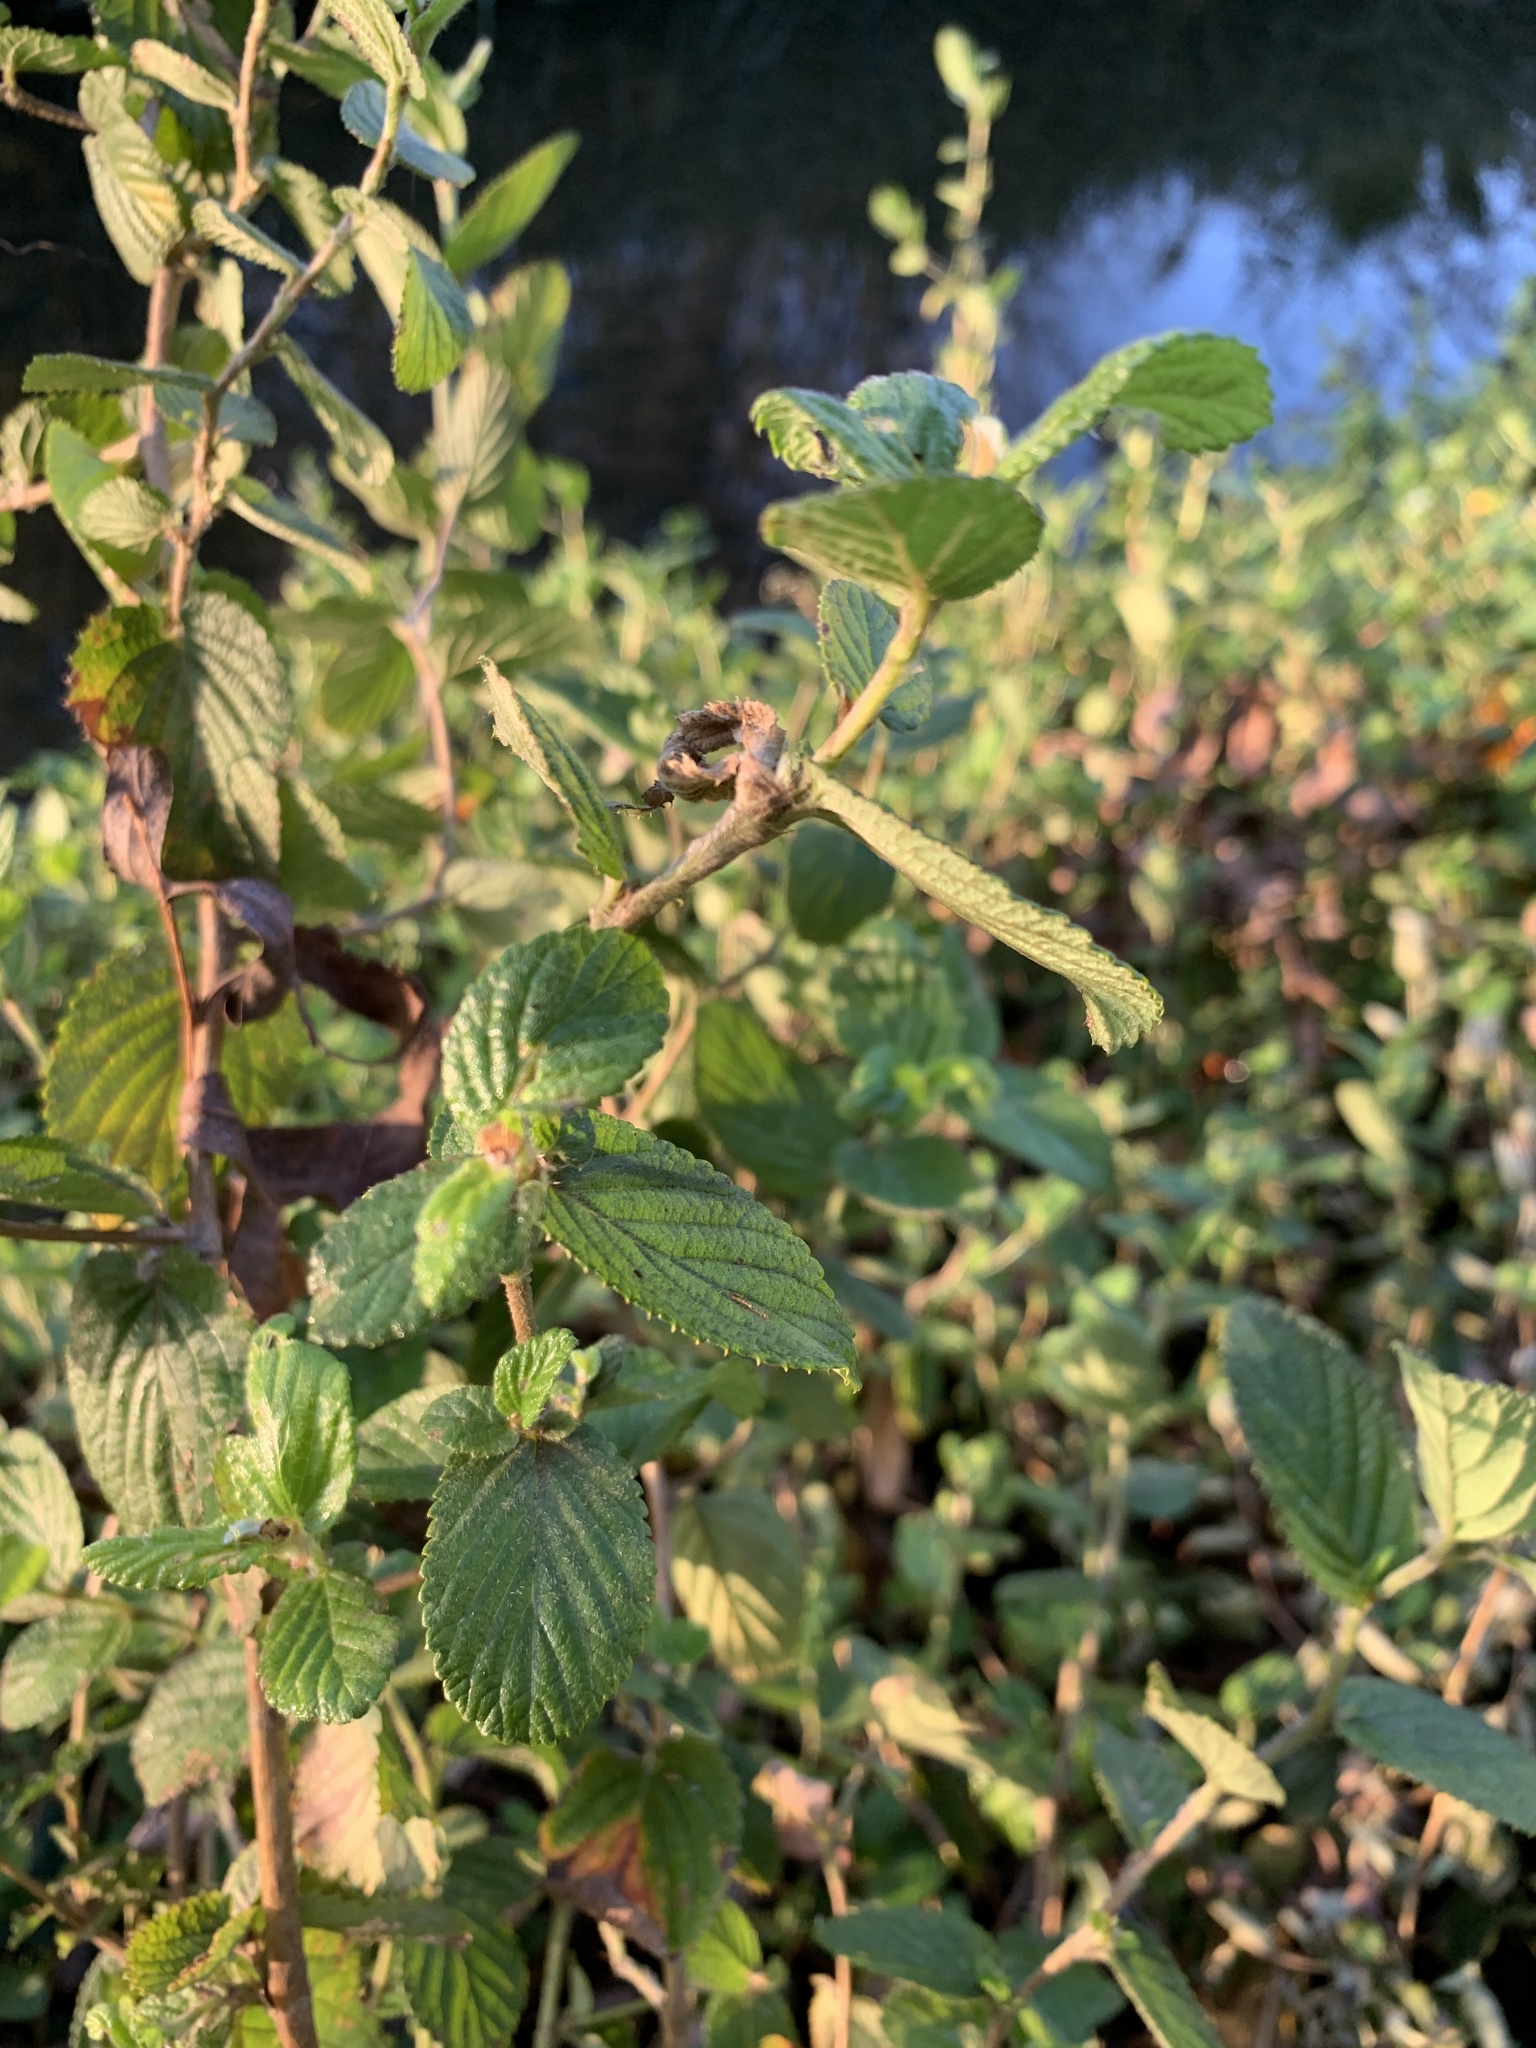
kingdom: Plantae
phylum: Tracheophyta
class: Magnoliopsida
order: Rosales
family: Rosaceae
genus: Cliffortia
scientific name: Cliffortia odorata
